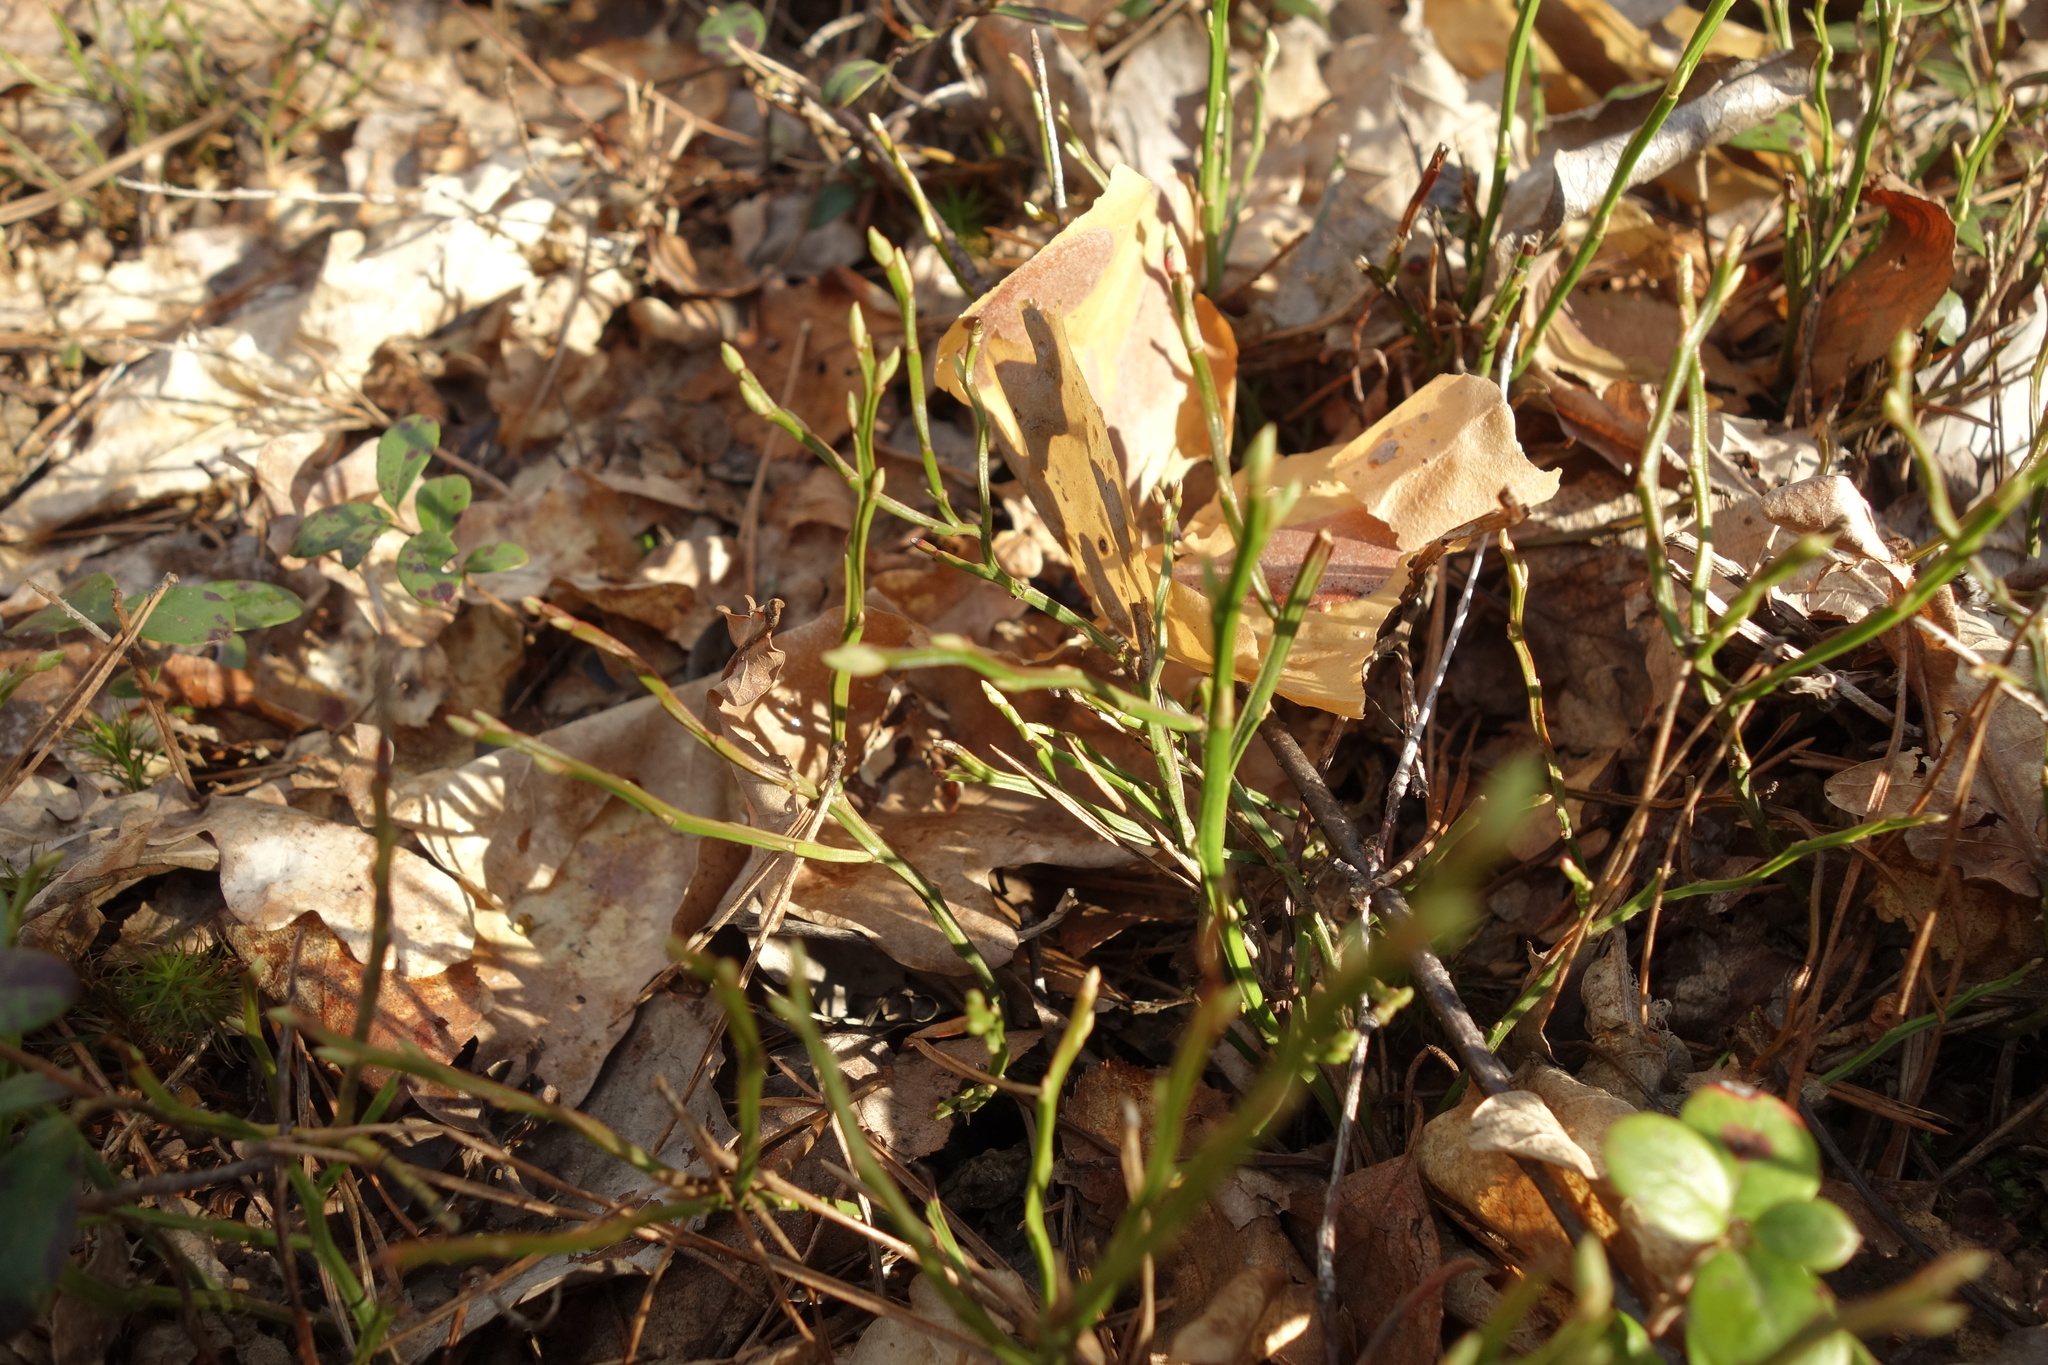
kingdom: Plantae
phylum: Tracheophyta
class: Magnoliopsida
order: Ericales
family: Ericaceae
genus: Vaccinium
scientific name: Vaccinium myrtillus
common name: Bilberry
